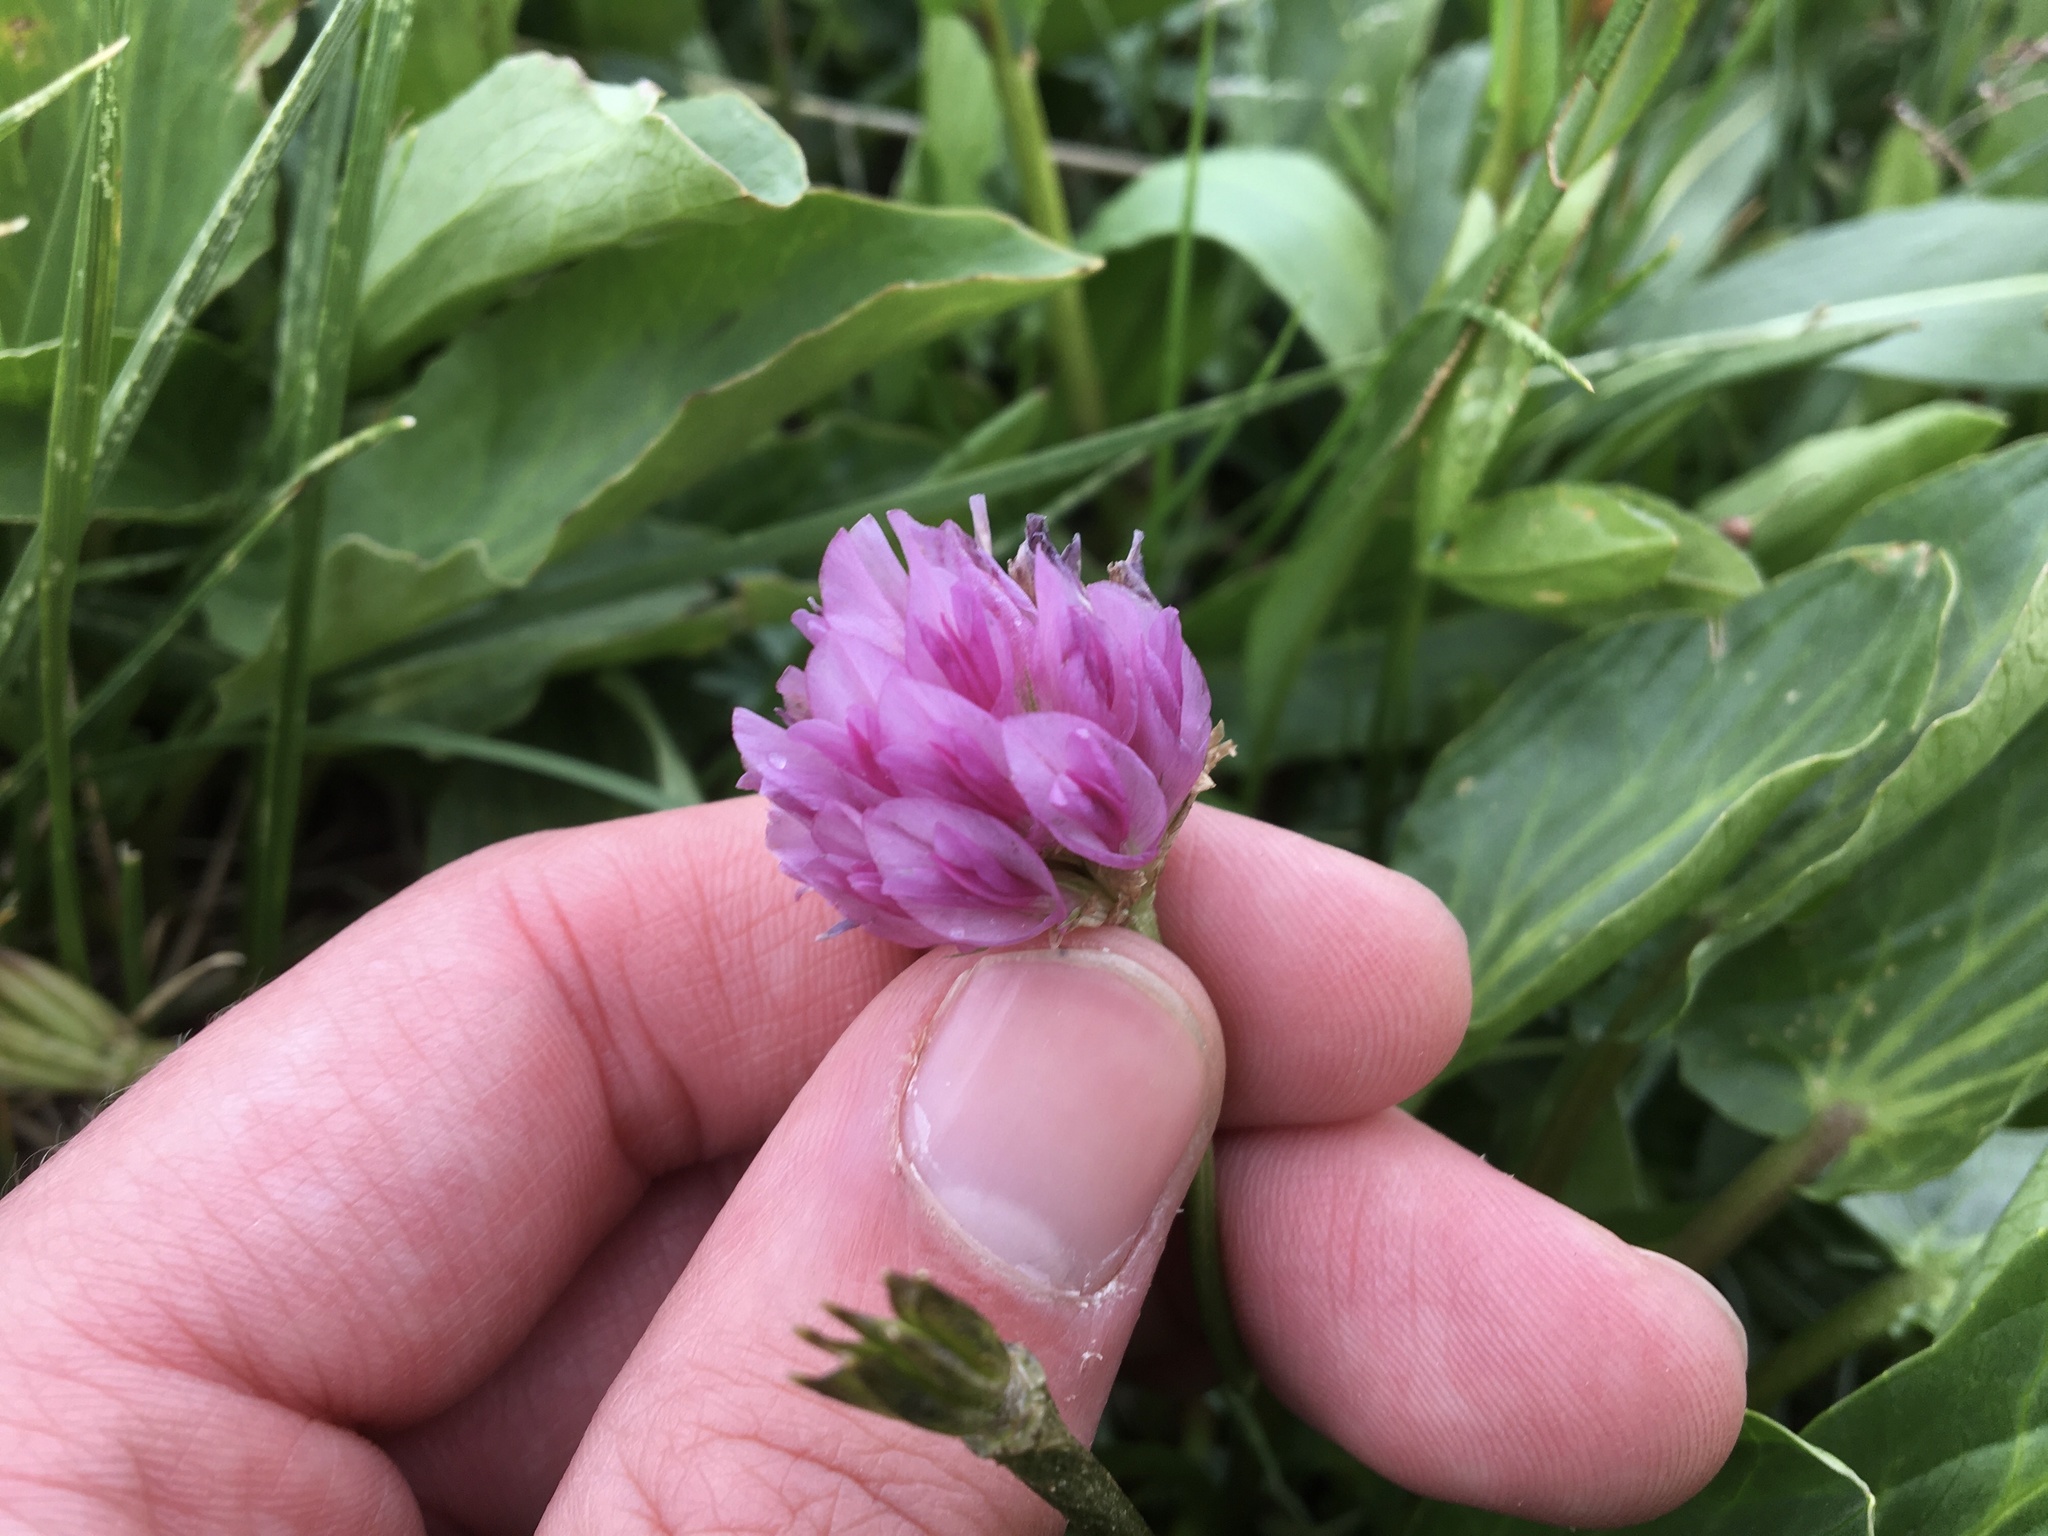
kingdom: Plantae
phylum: Tracheophyta
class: Magnoliopsida
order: Fabales
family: Fabaceae
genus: Trifolium
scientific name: Trifolium parryi
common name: Parry's clover
